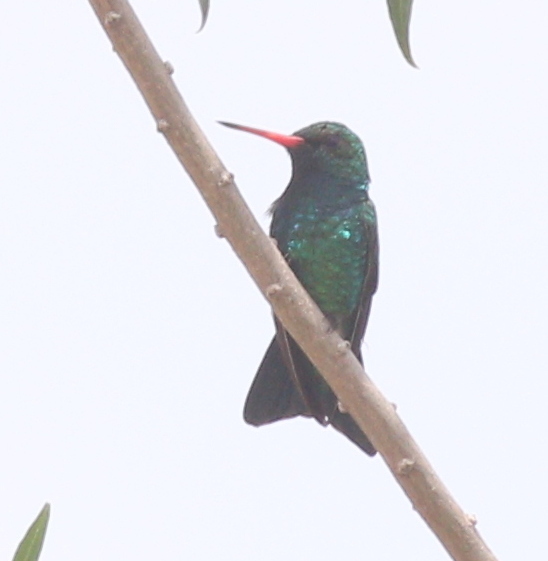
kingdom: Animalia
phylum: Chordata
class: Aves
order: Apodiformes
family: Trochilidae
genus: Chlorostilbon
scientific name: Chlorostilbon lucidus
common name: Glittering-bellied emerald
